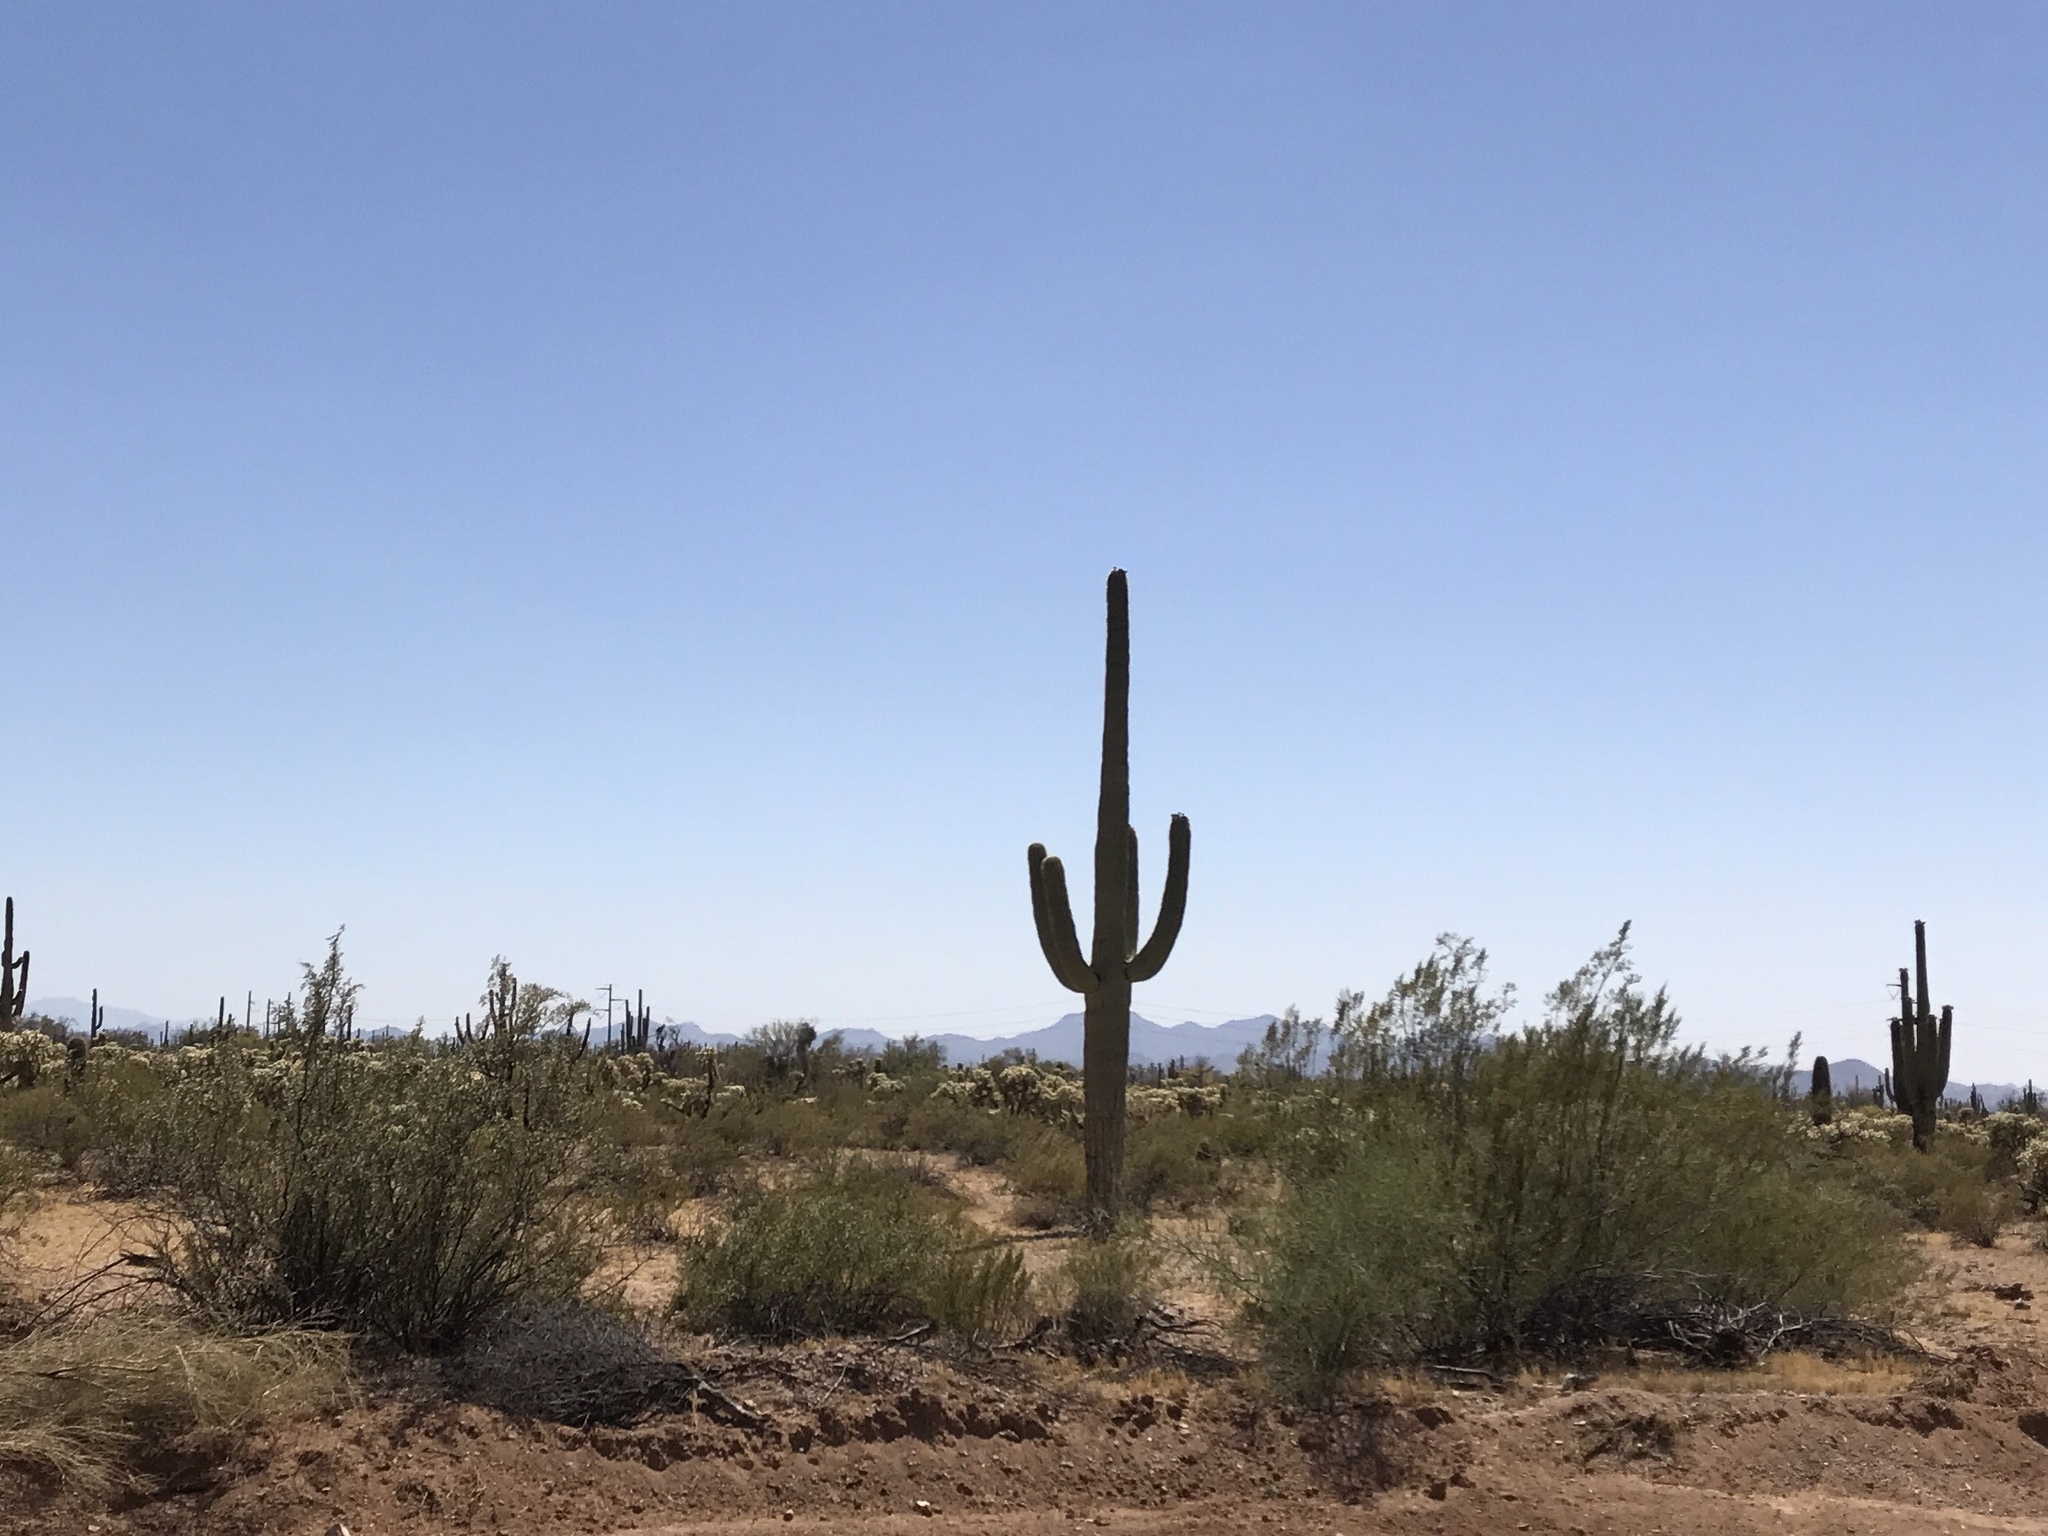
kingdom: Plantae
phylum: Tracheophyta
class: Magnoliopsida
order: Caryophyllales
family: Cactaceae
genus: Carnegiea
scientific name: Carnegiea gigantea
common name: Saguaro
